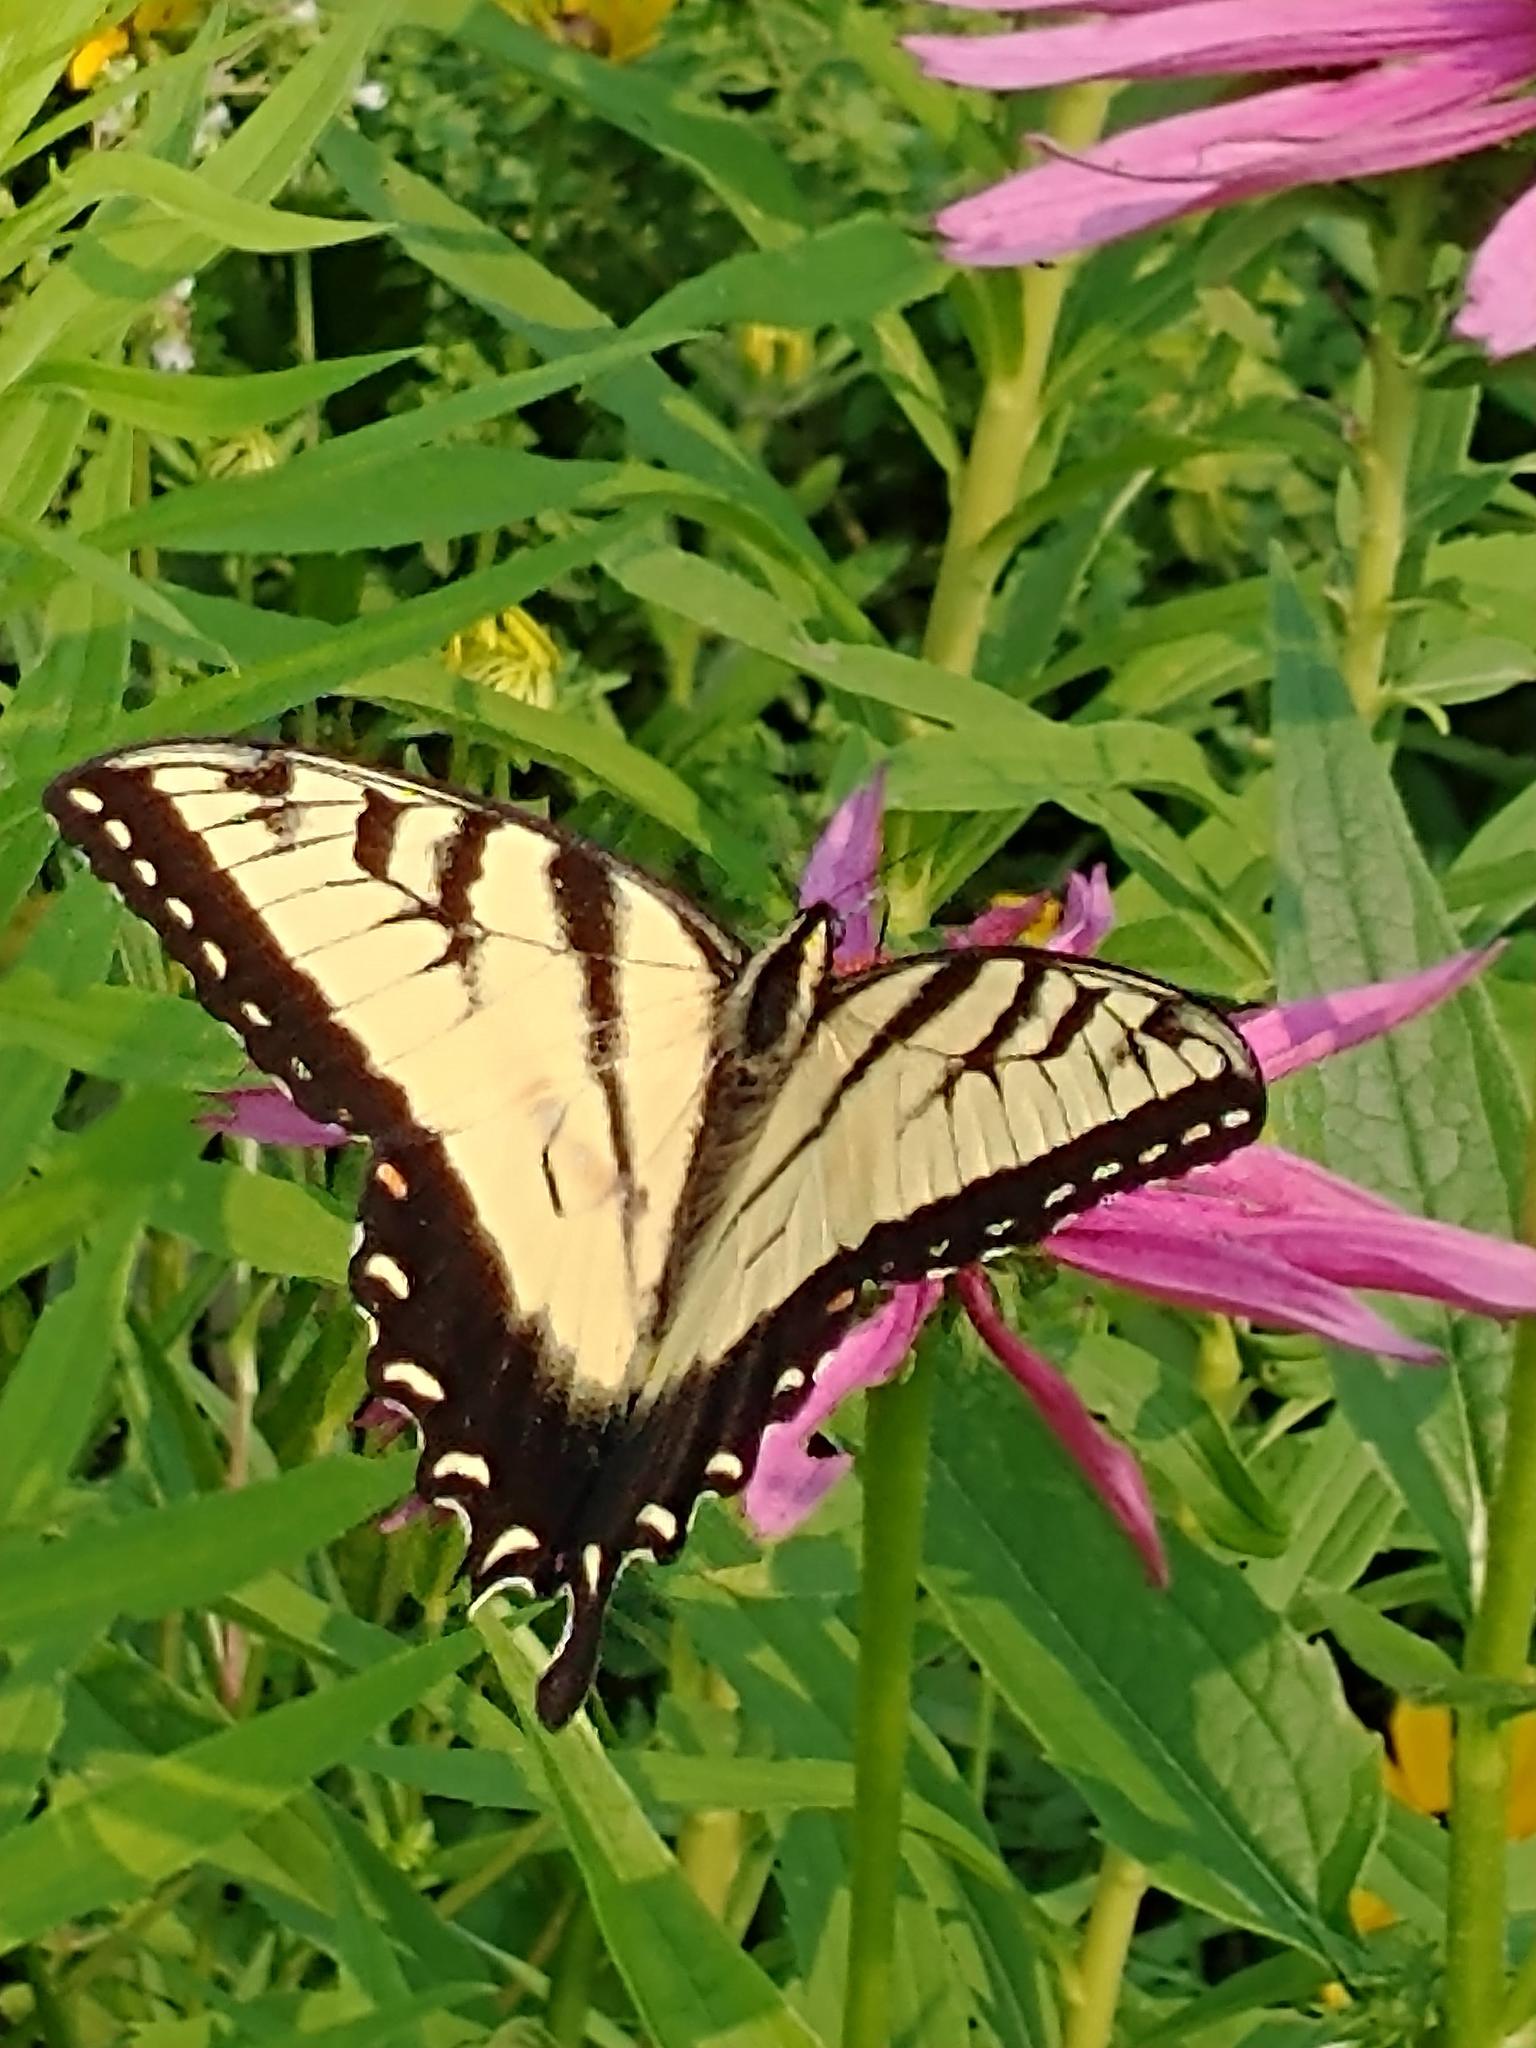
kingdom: Animalia
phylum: Arthropoda
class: Insecta
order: Lepidoptera
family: Papilionidae
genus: Papilio
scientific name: Papilio glaucus
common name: Tiger swallowtail
